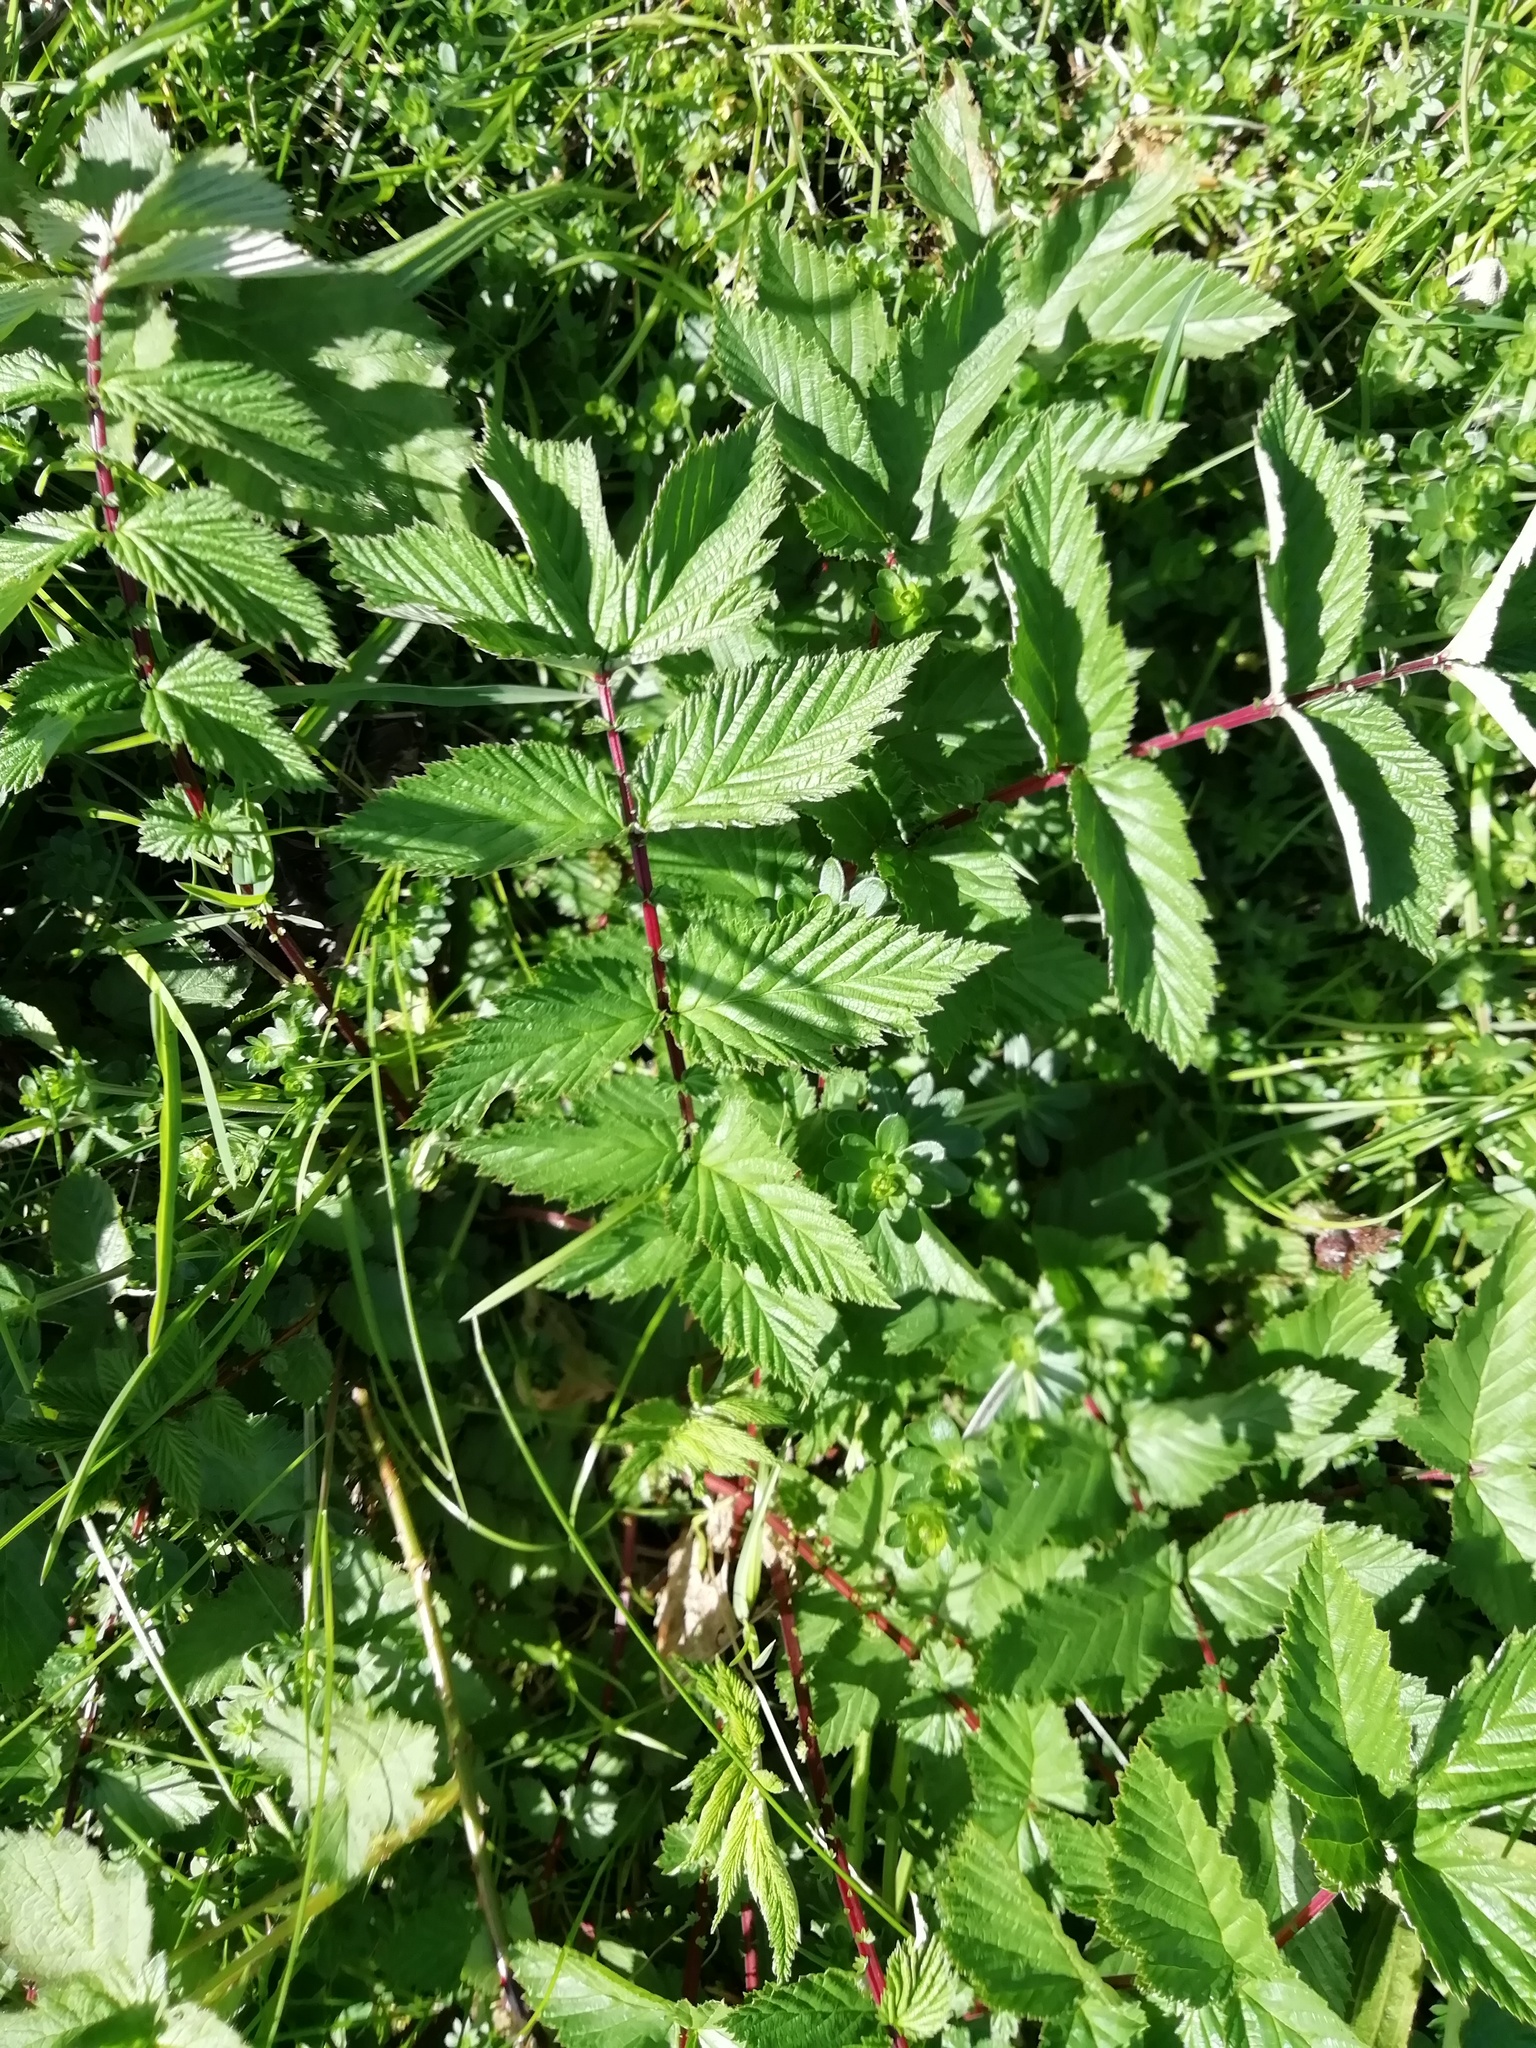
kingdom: Plantae
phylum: Tracheophyta
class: Magnoliopsida
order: Rosales
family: Rosaceae
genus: Filipendula
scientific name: Filipendula ulmaria
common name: Meadowsweet
